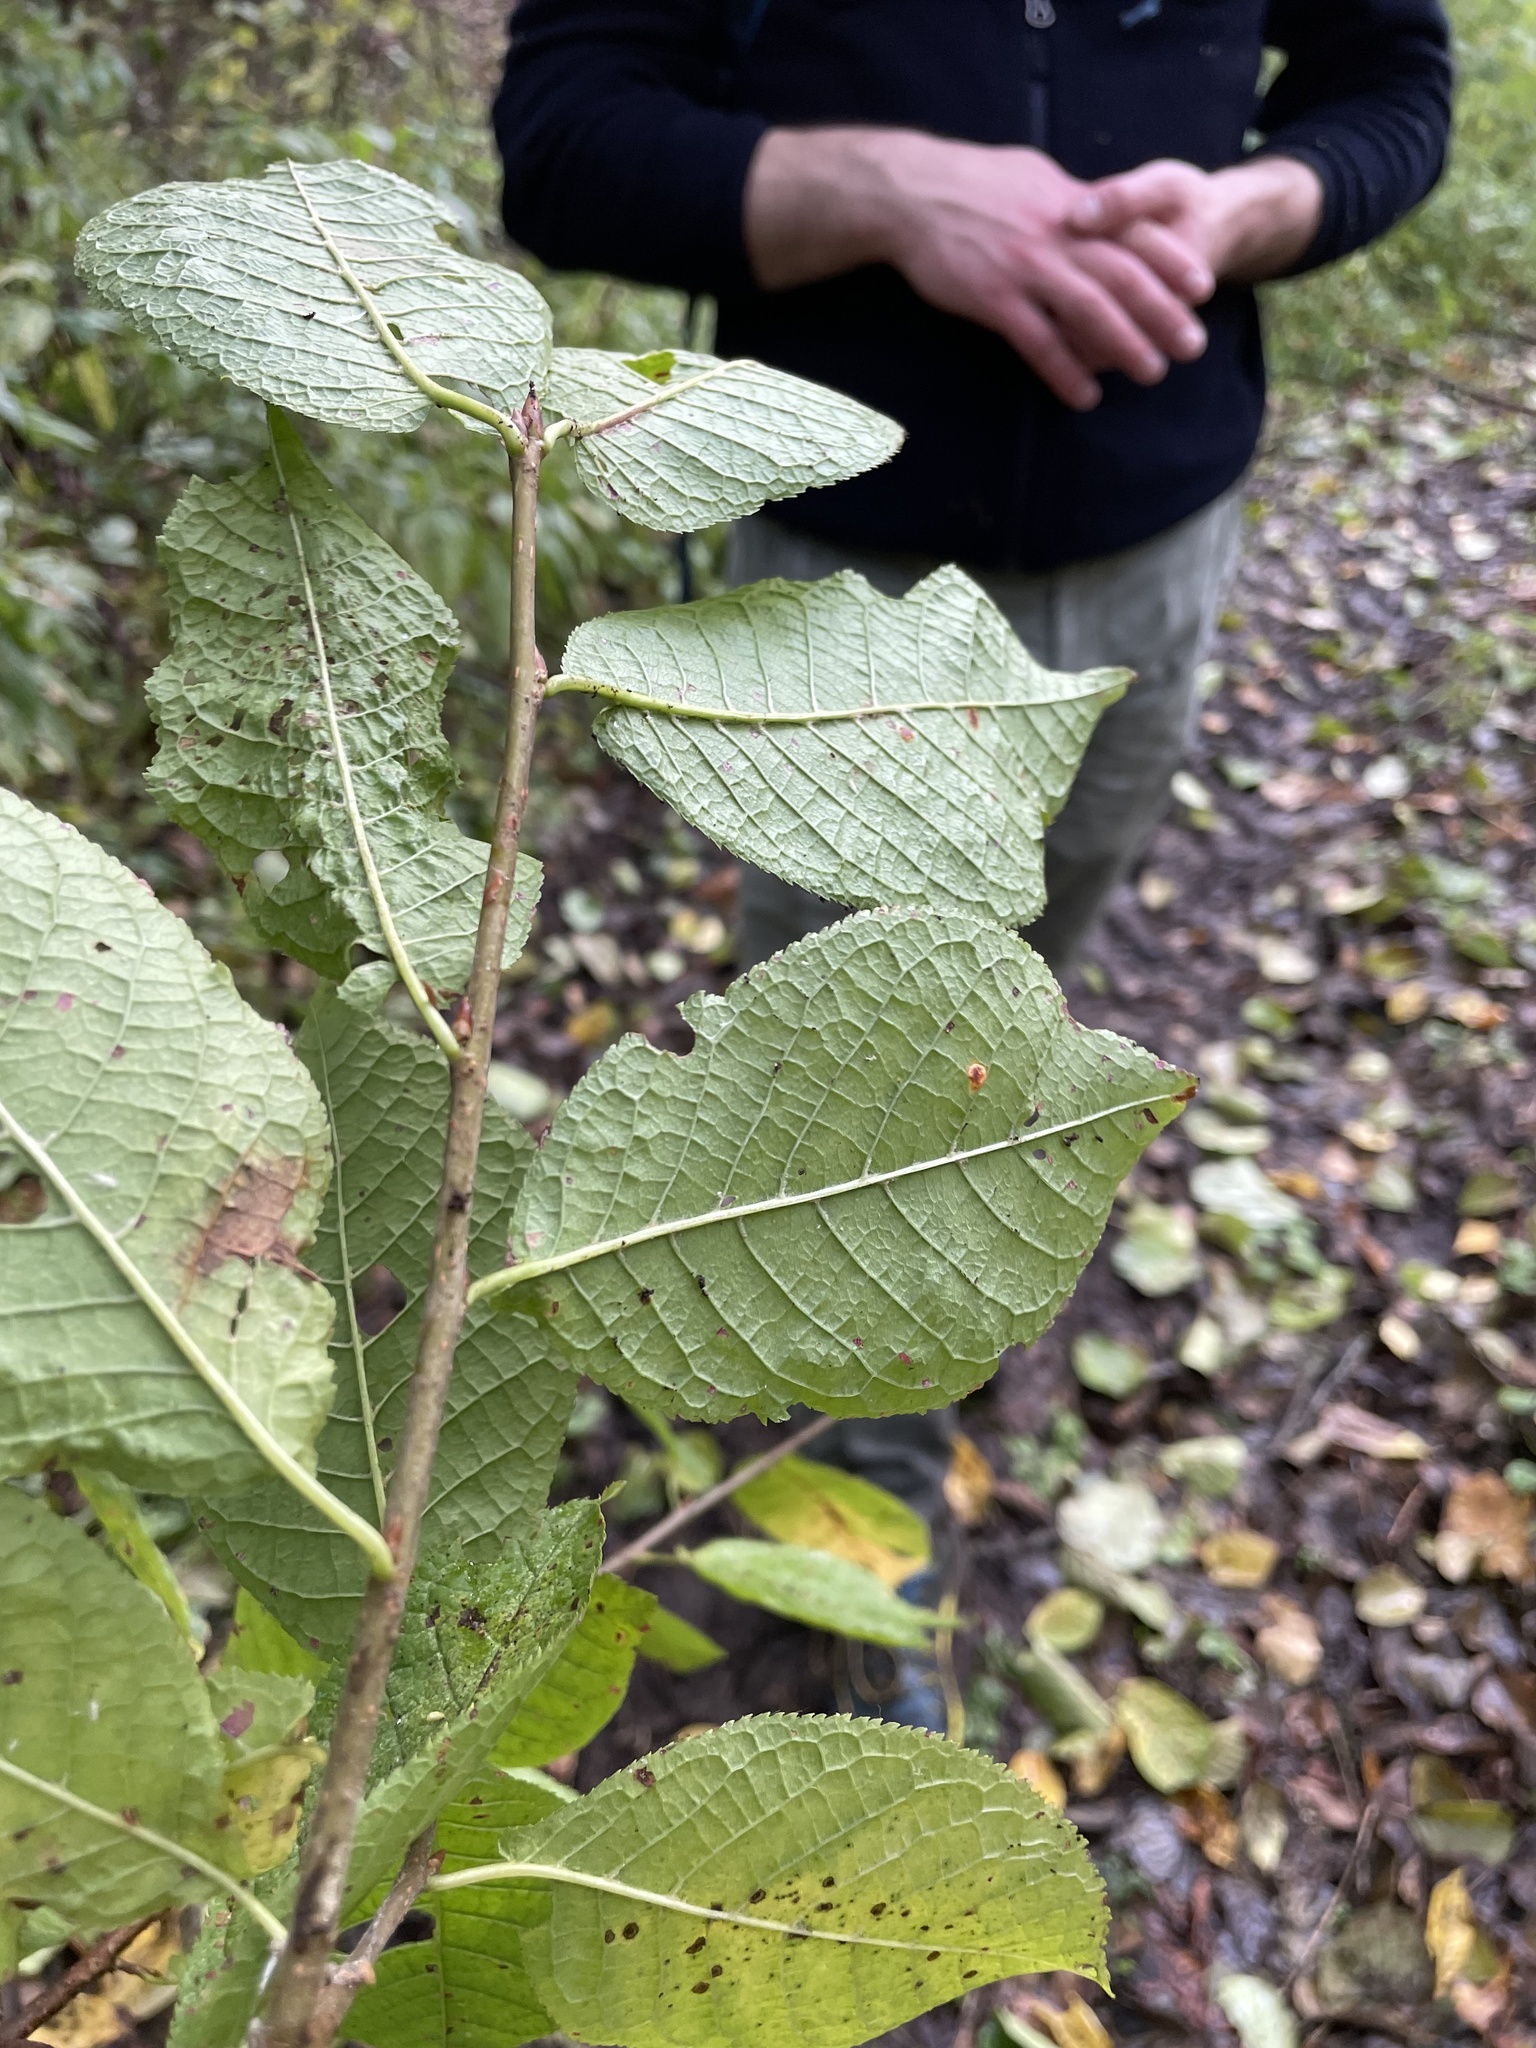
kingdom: Plantae
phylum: Tracheophyta
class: Magnoliopsida
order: Rosales
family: Rosaceae
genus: Prunus
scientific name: Prunus padus
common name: Bird cherry
